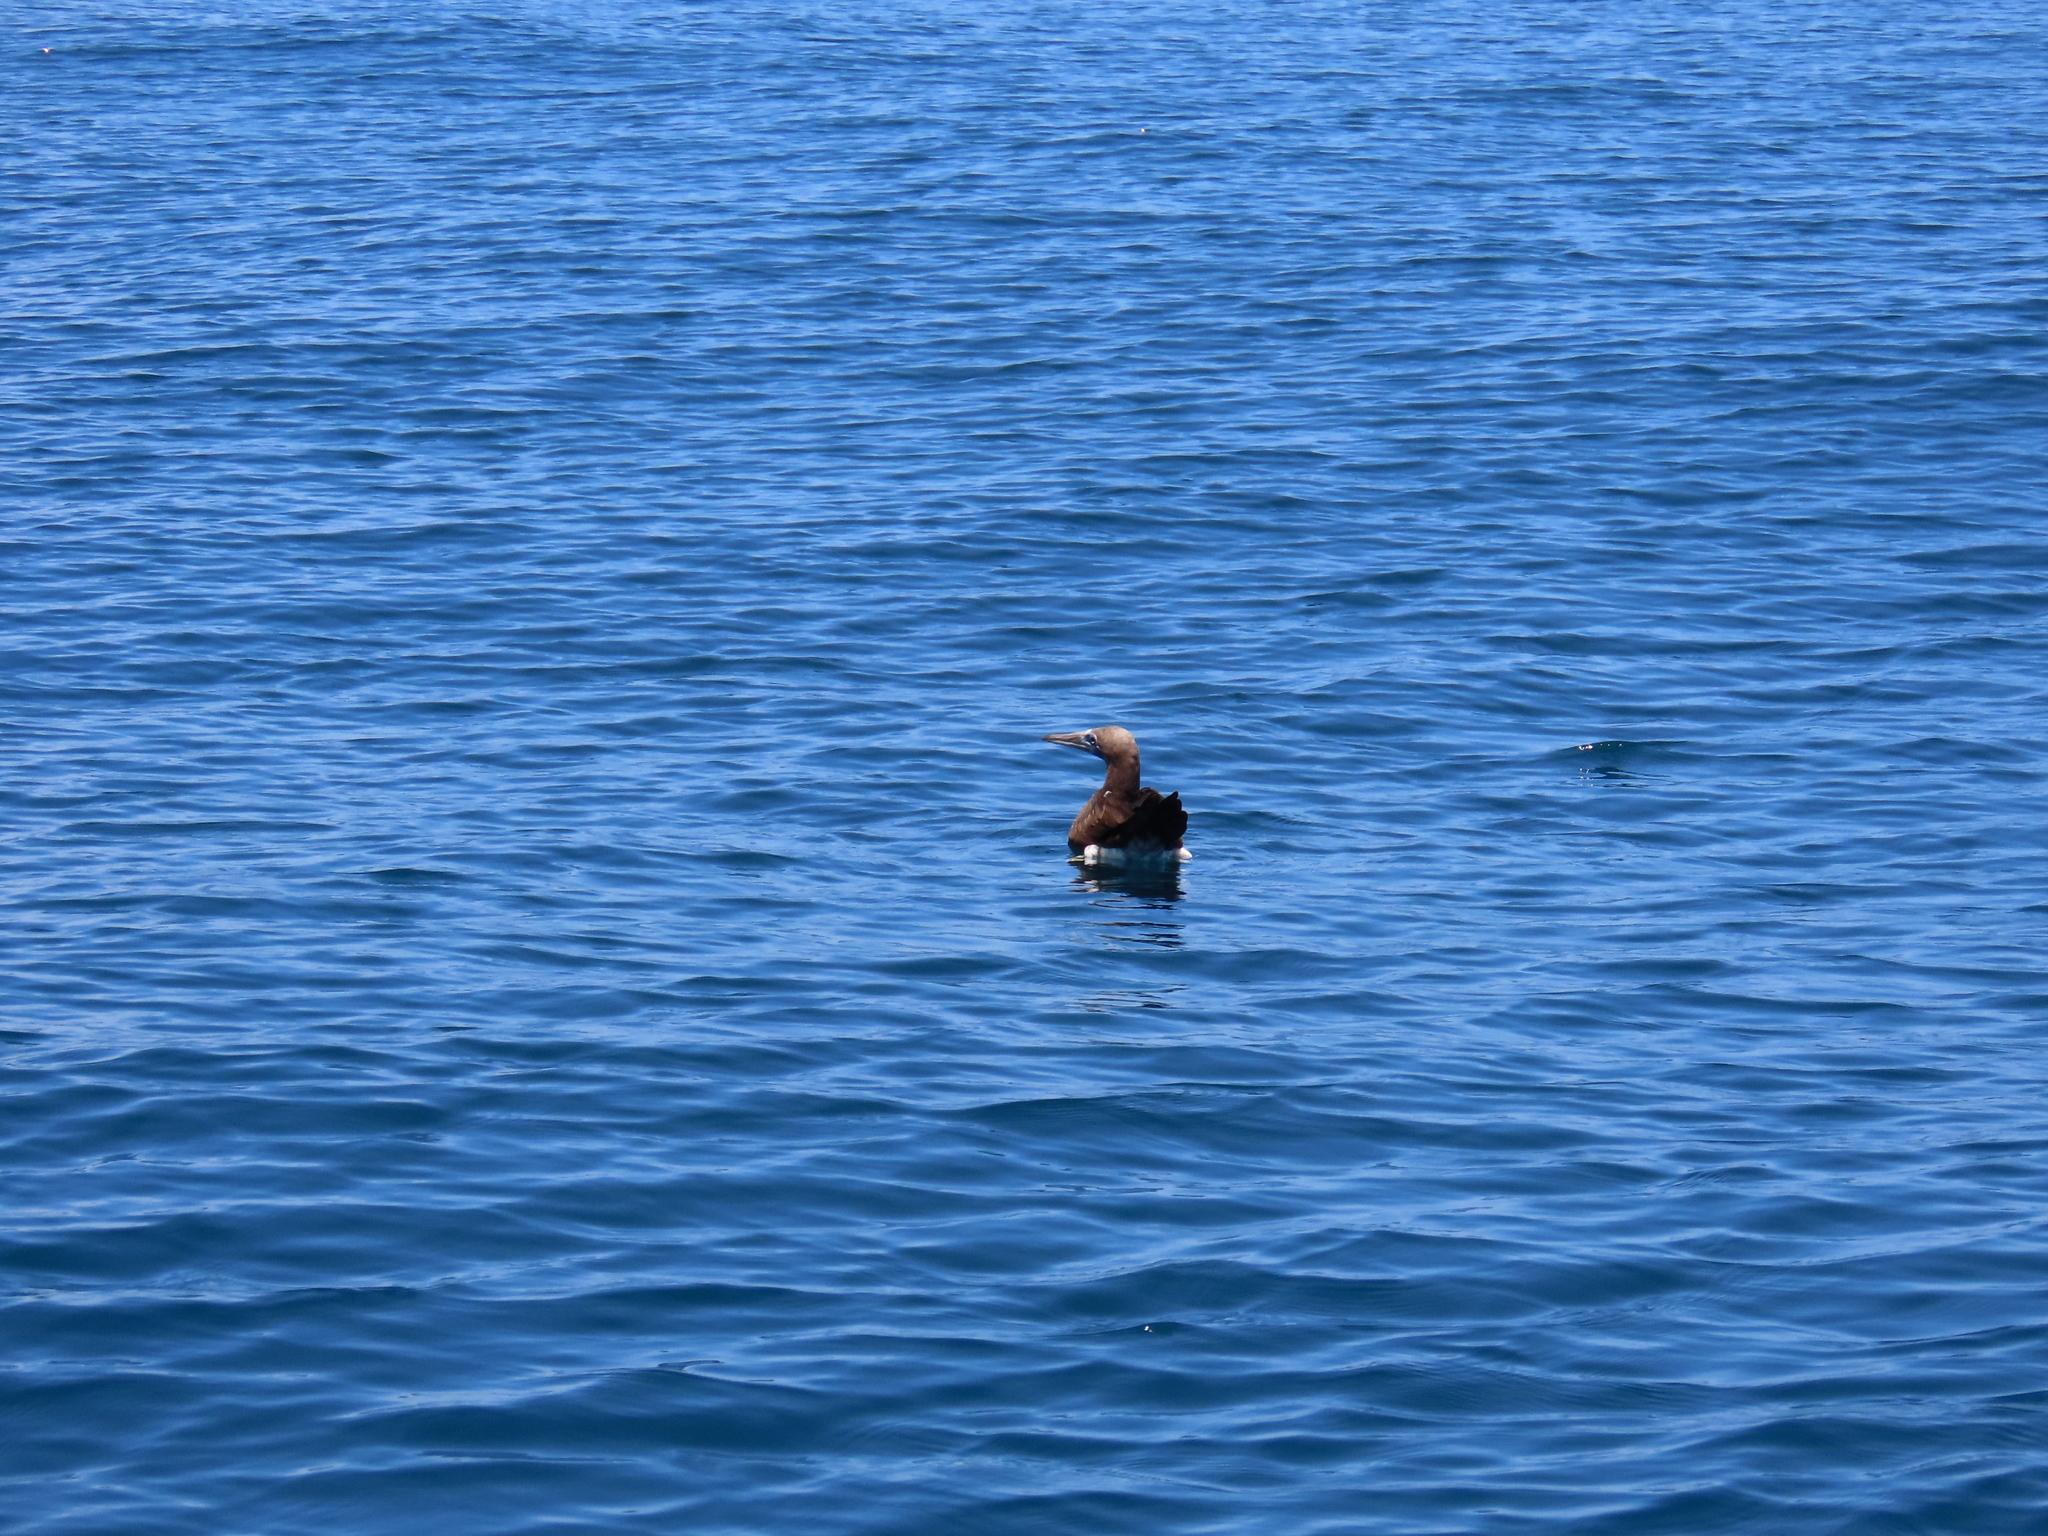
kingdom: Animalia
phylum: Chordata
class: Aves
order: Suliformes
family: Sulidae
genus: Sula
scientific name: Sula leucogaster
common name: Brown booby
